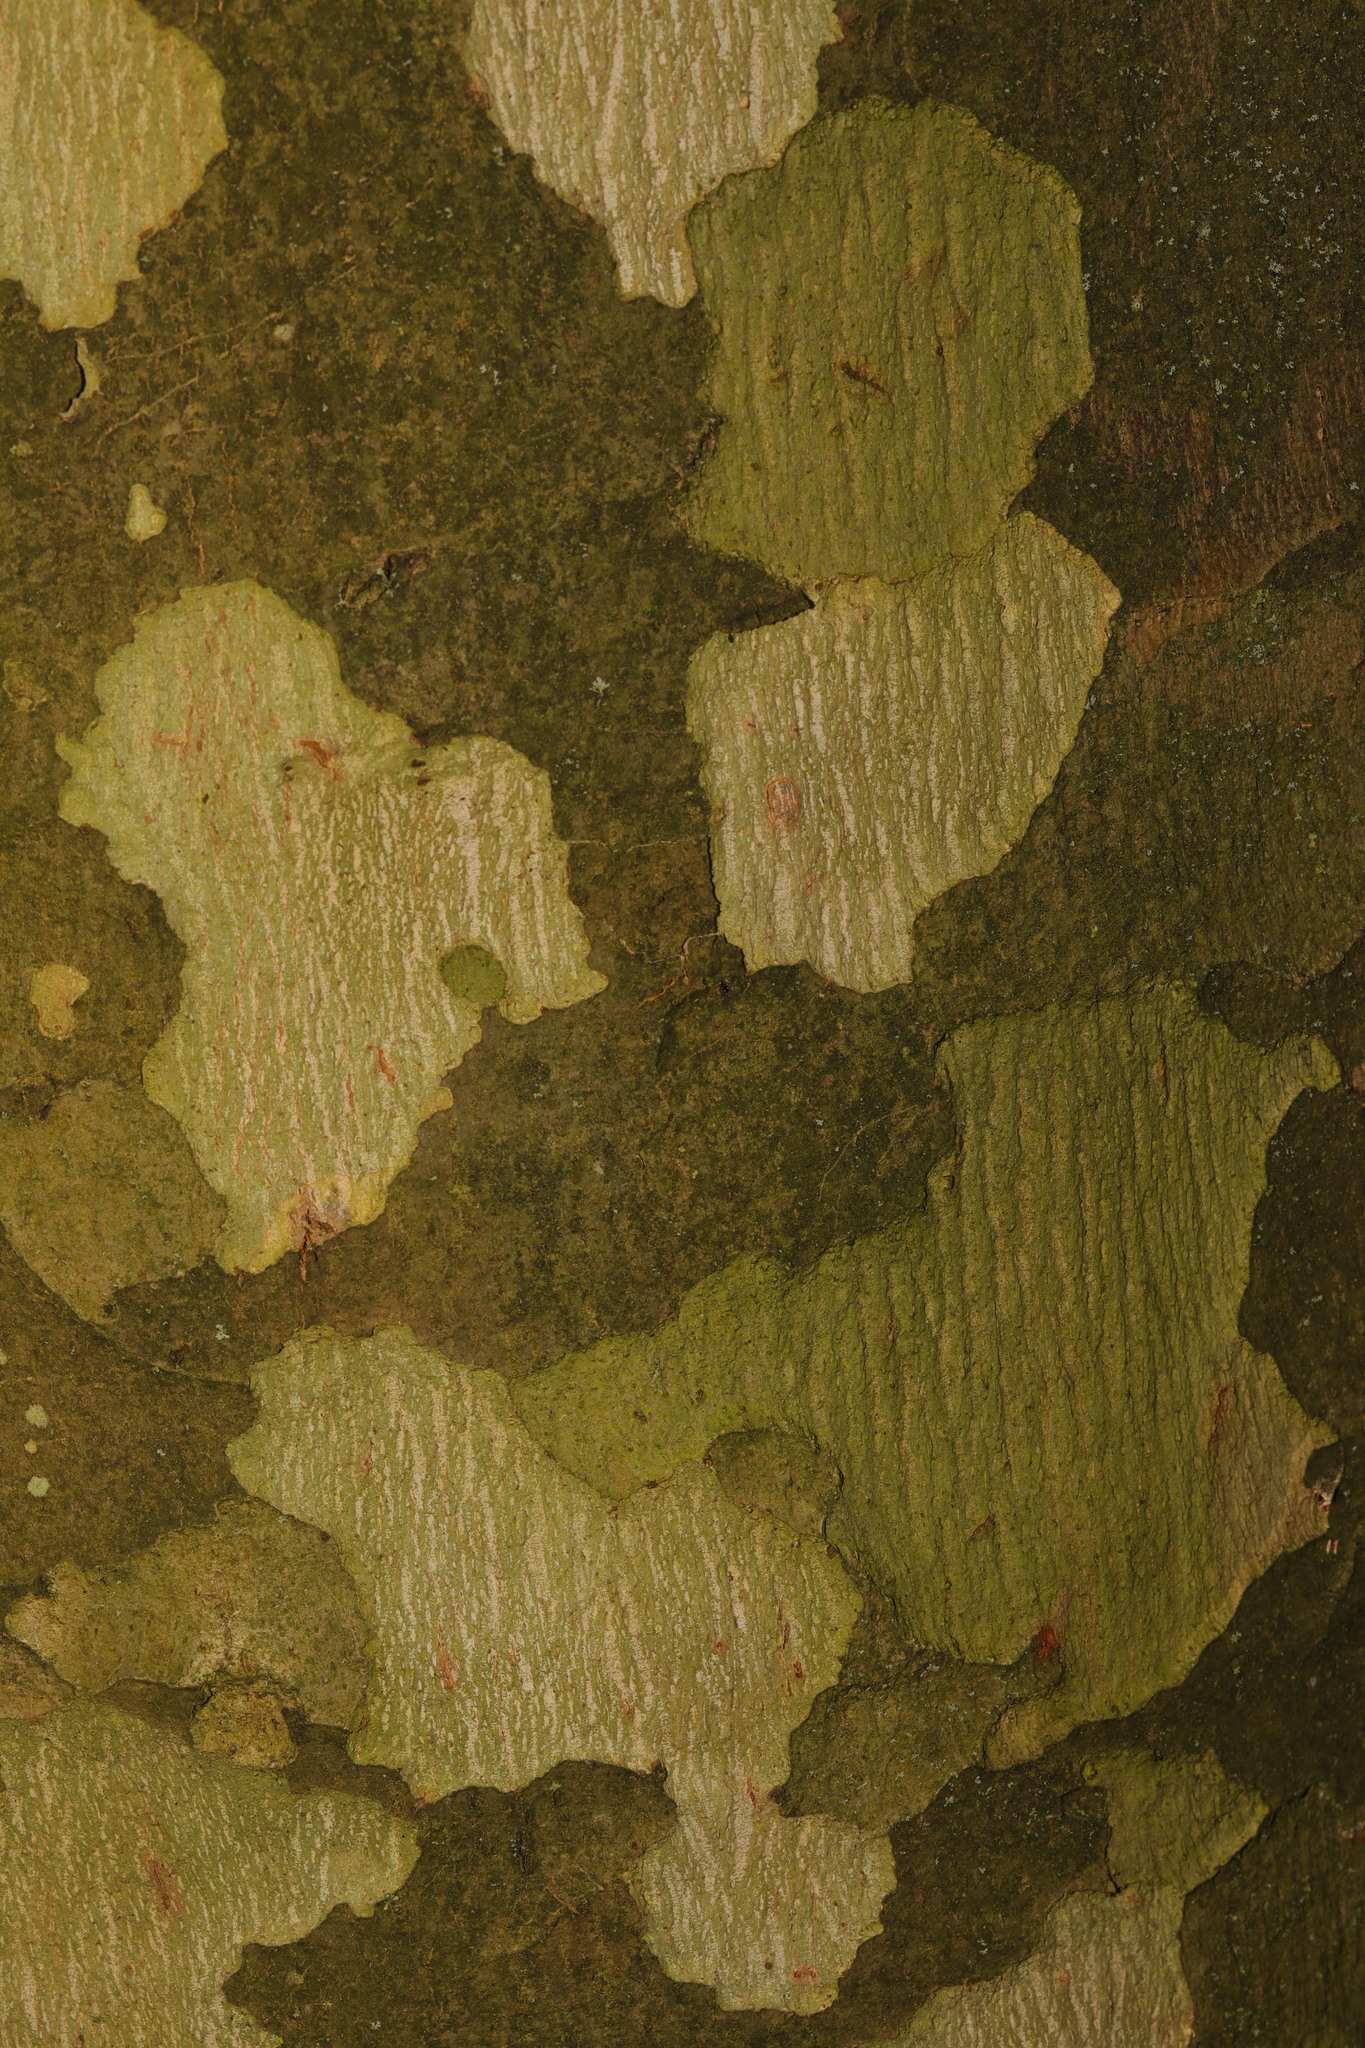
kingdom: Plantae
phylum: Tracheophyta
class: Magnoliopsida
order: Proteales
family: Platanaceae
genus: Platanus
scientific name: Platanus hispanica
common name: London plane
